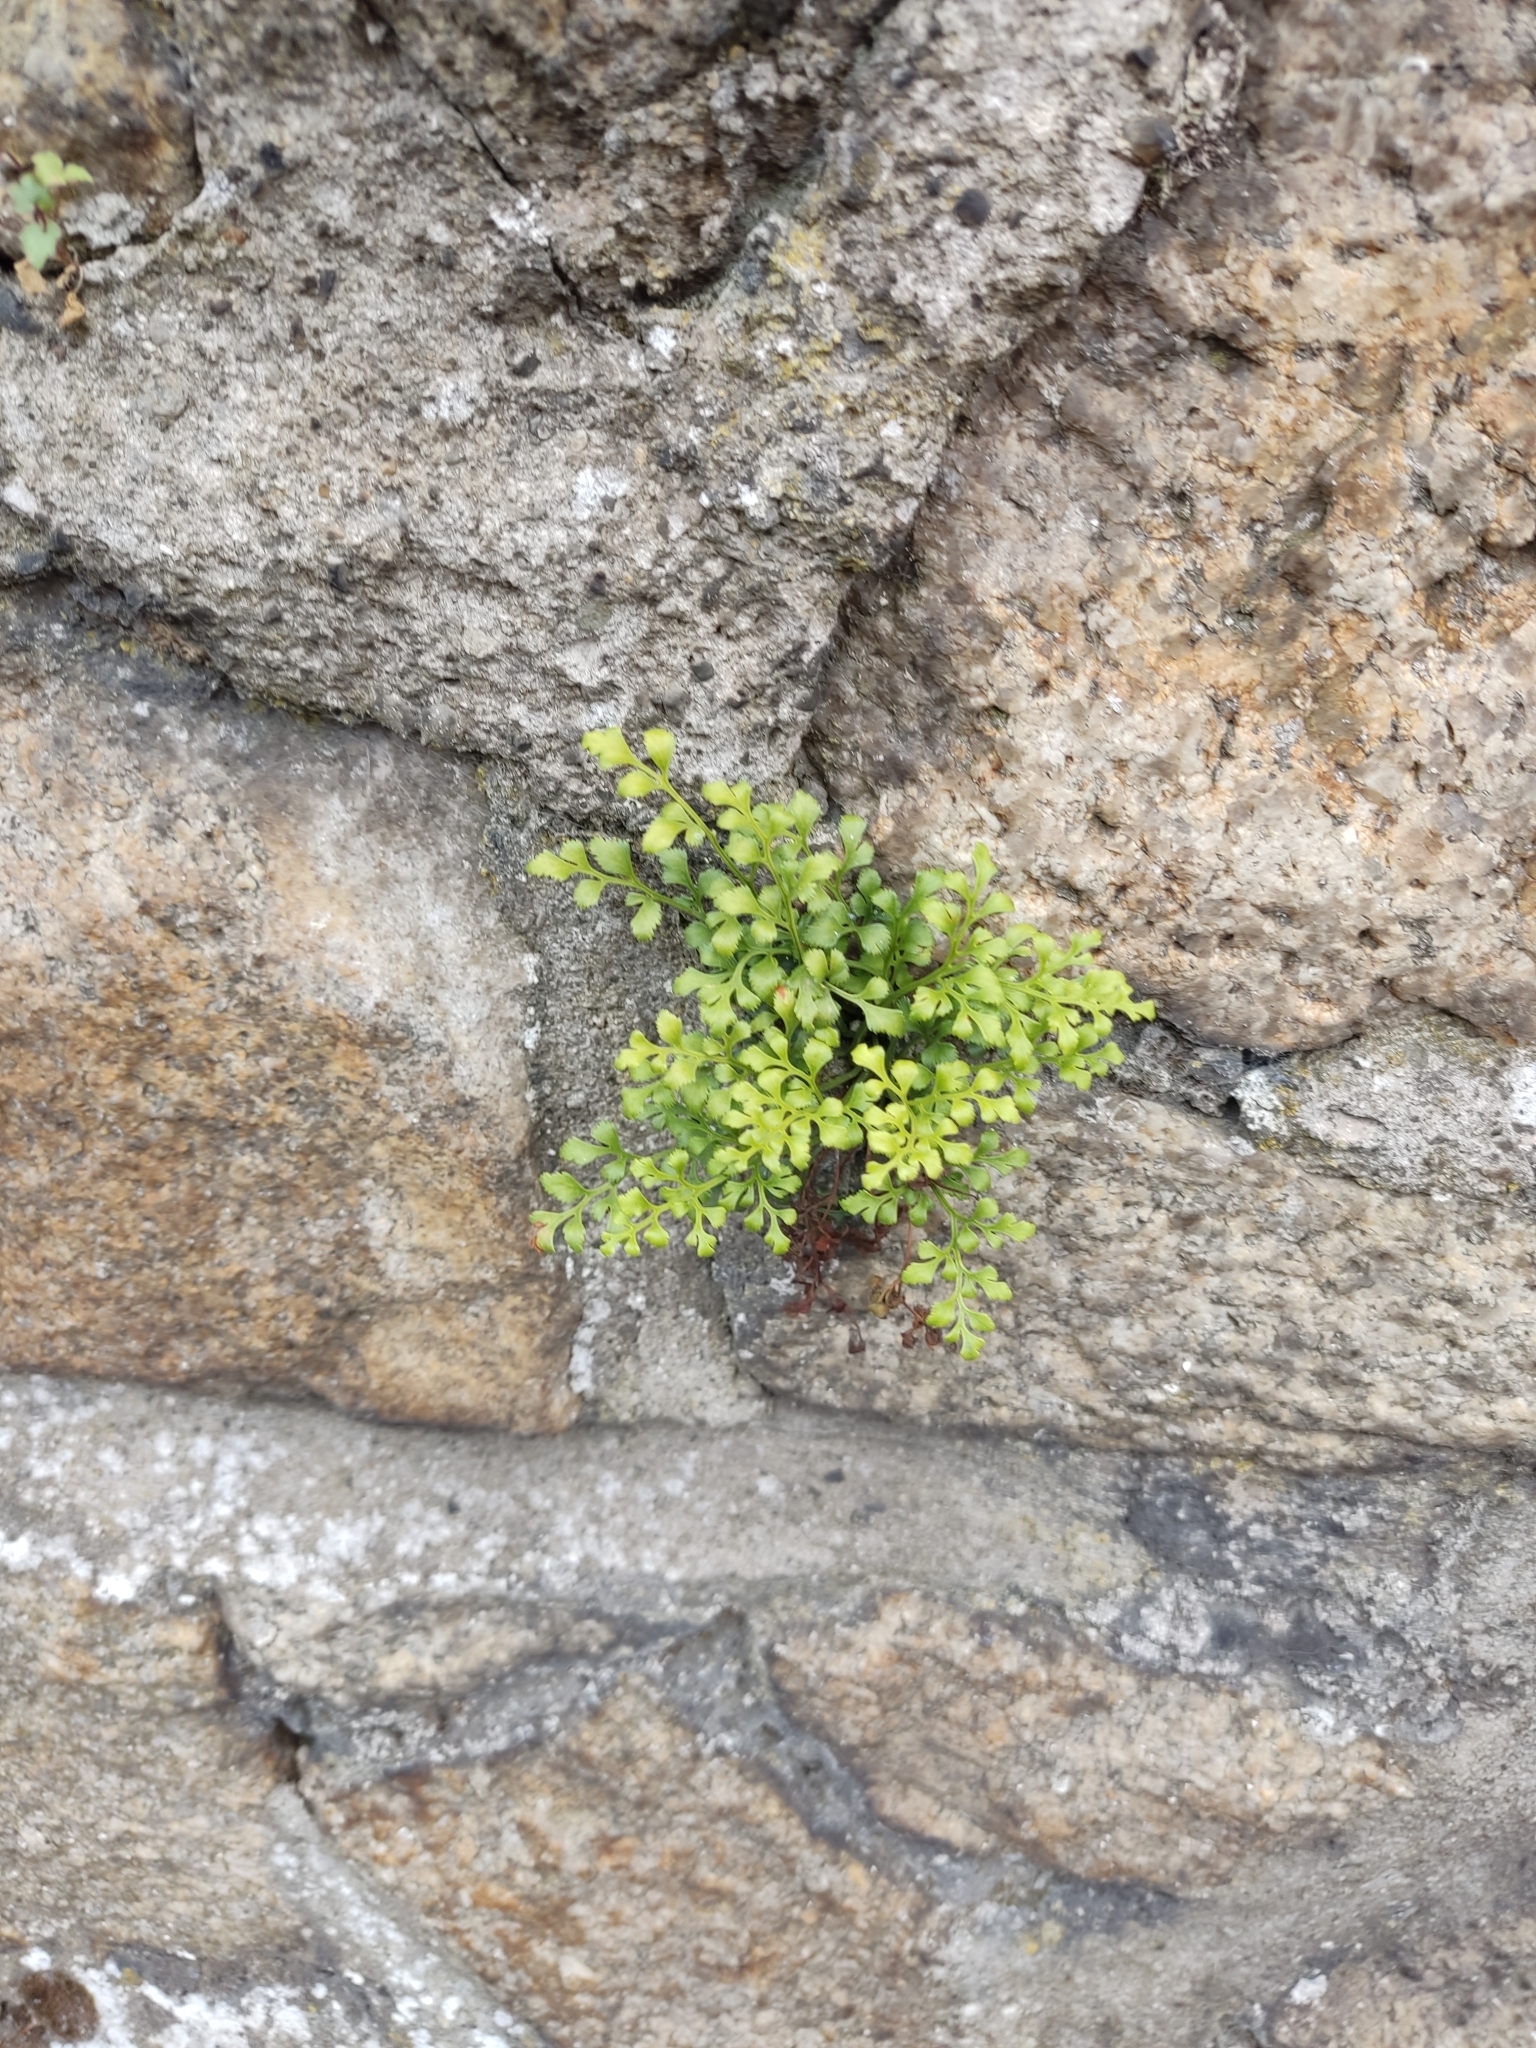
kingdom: Plantae
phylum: Tracheophyta
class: Polypodiopsida
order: Polypodiales
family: Aspleniaceae
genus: Asplenium
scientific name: Asplenium ruta-muraria
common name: Wall-rue
